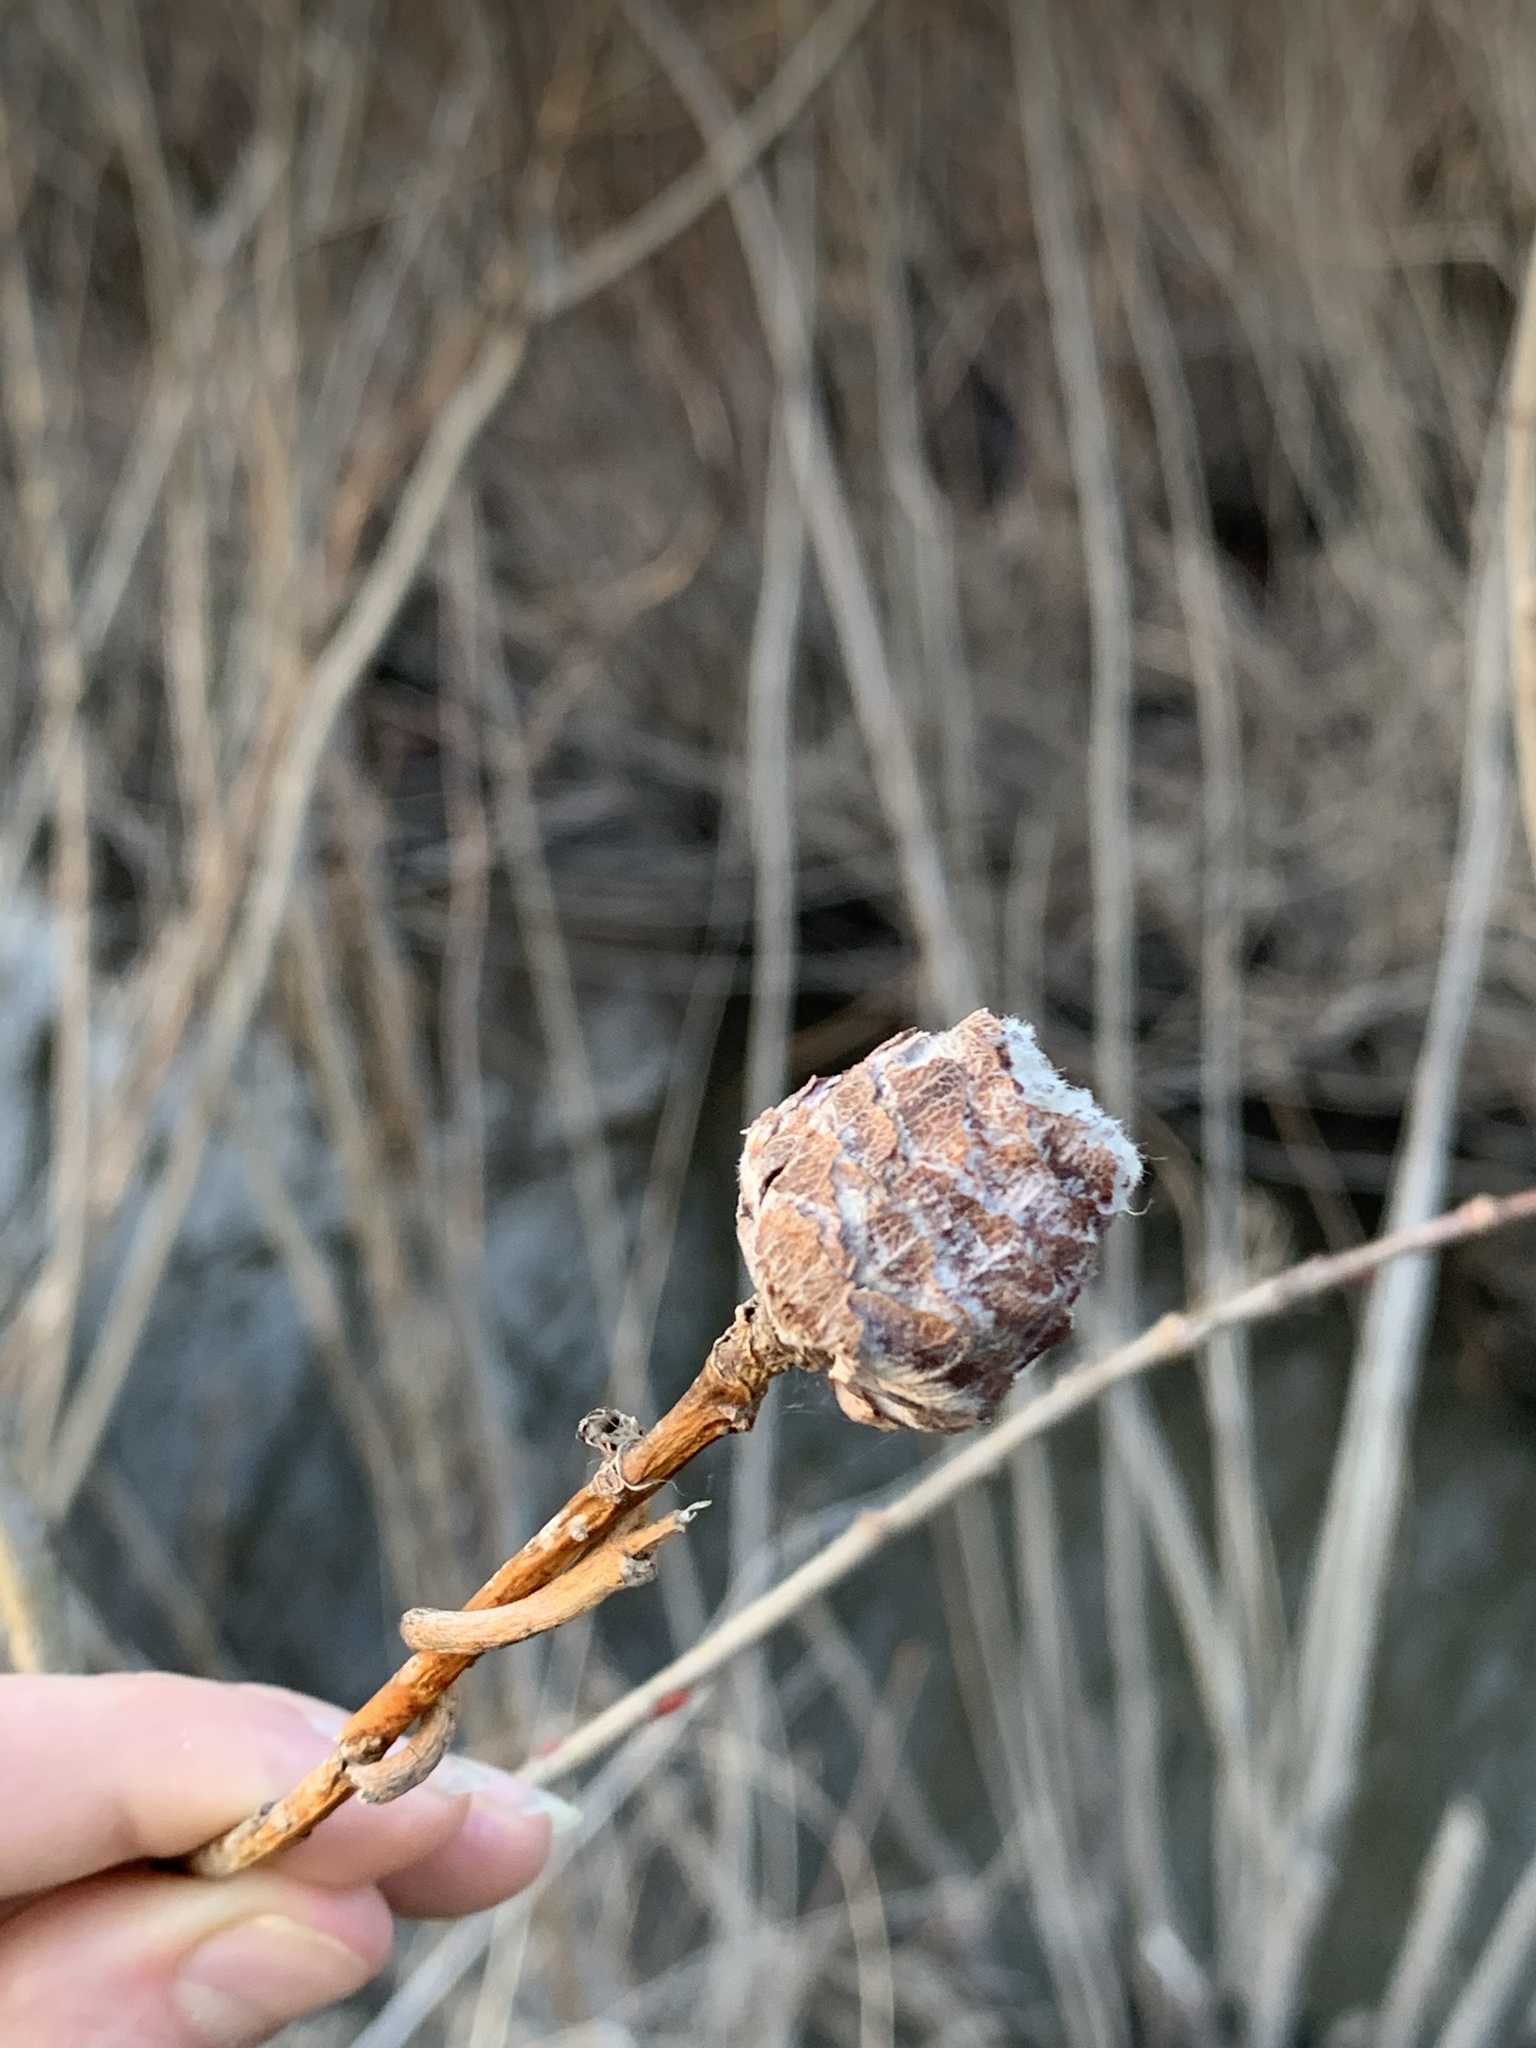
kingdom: Animalia
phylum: Arthropoda
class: Insecta
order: Diptera
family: Cecidomyiidae
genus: Rabdophaga
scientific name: Rabdophaga strobiloides
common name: Willow pinecone gall midge
